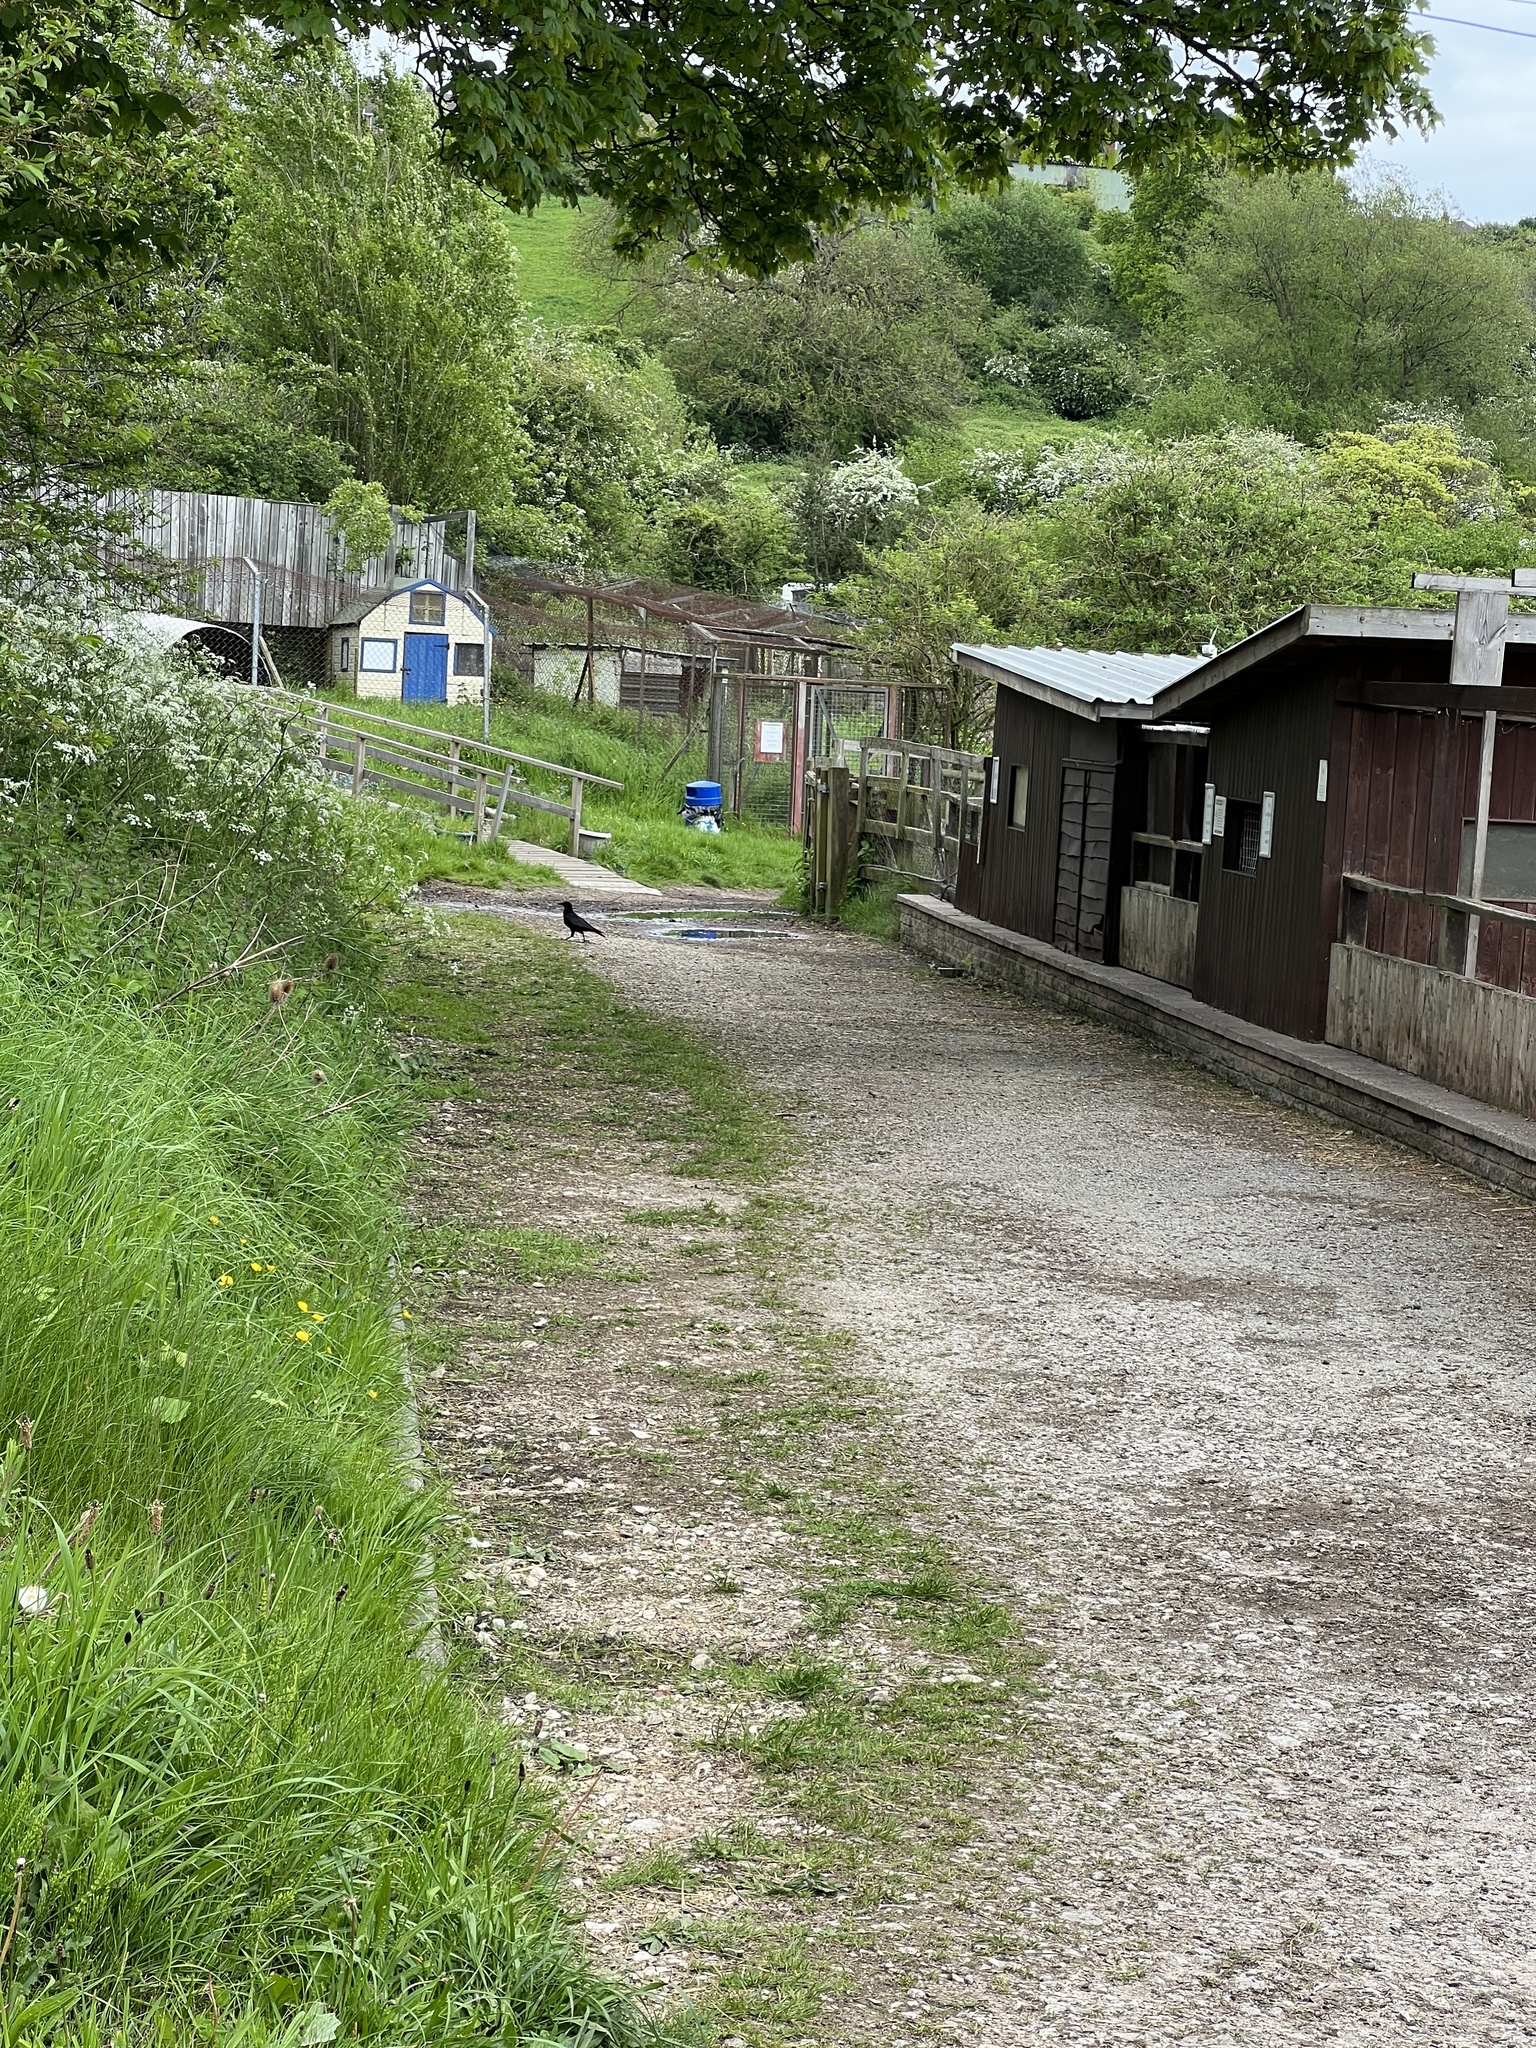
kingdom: Animalia
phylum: Chordata
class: Aves
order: Passeriformes
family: Corvidae
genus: Corvus
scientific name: Corvus corone
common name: Carrion crow
